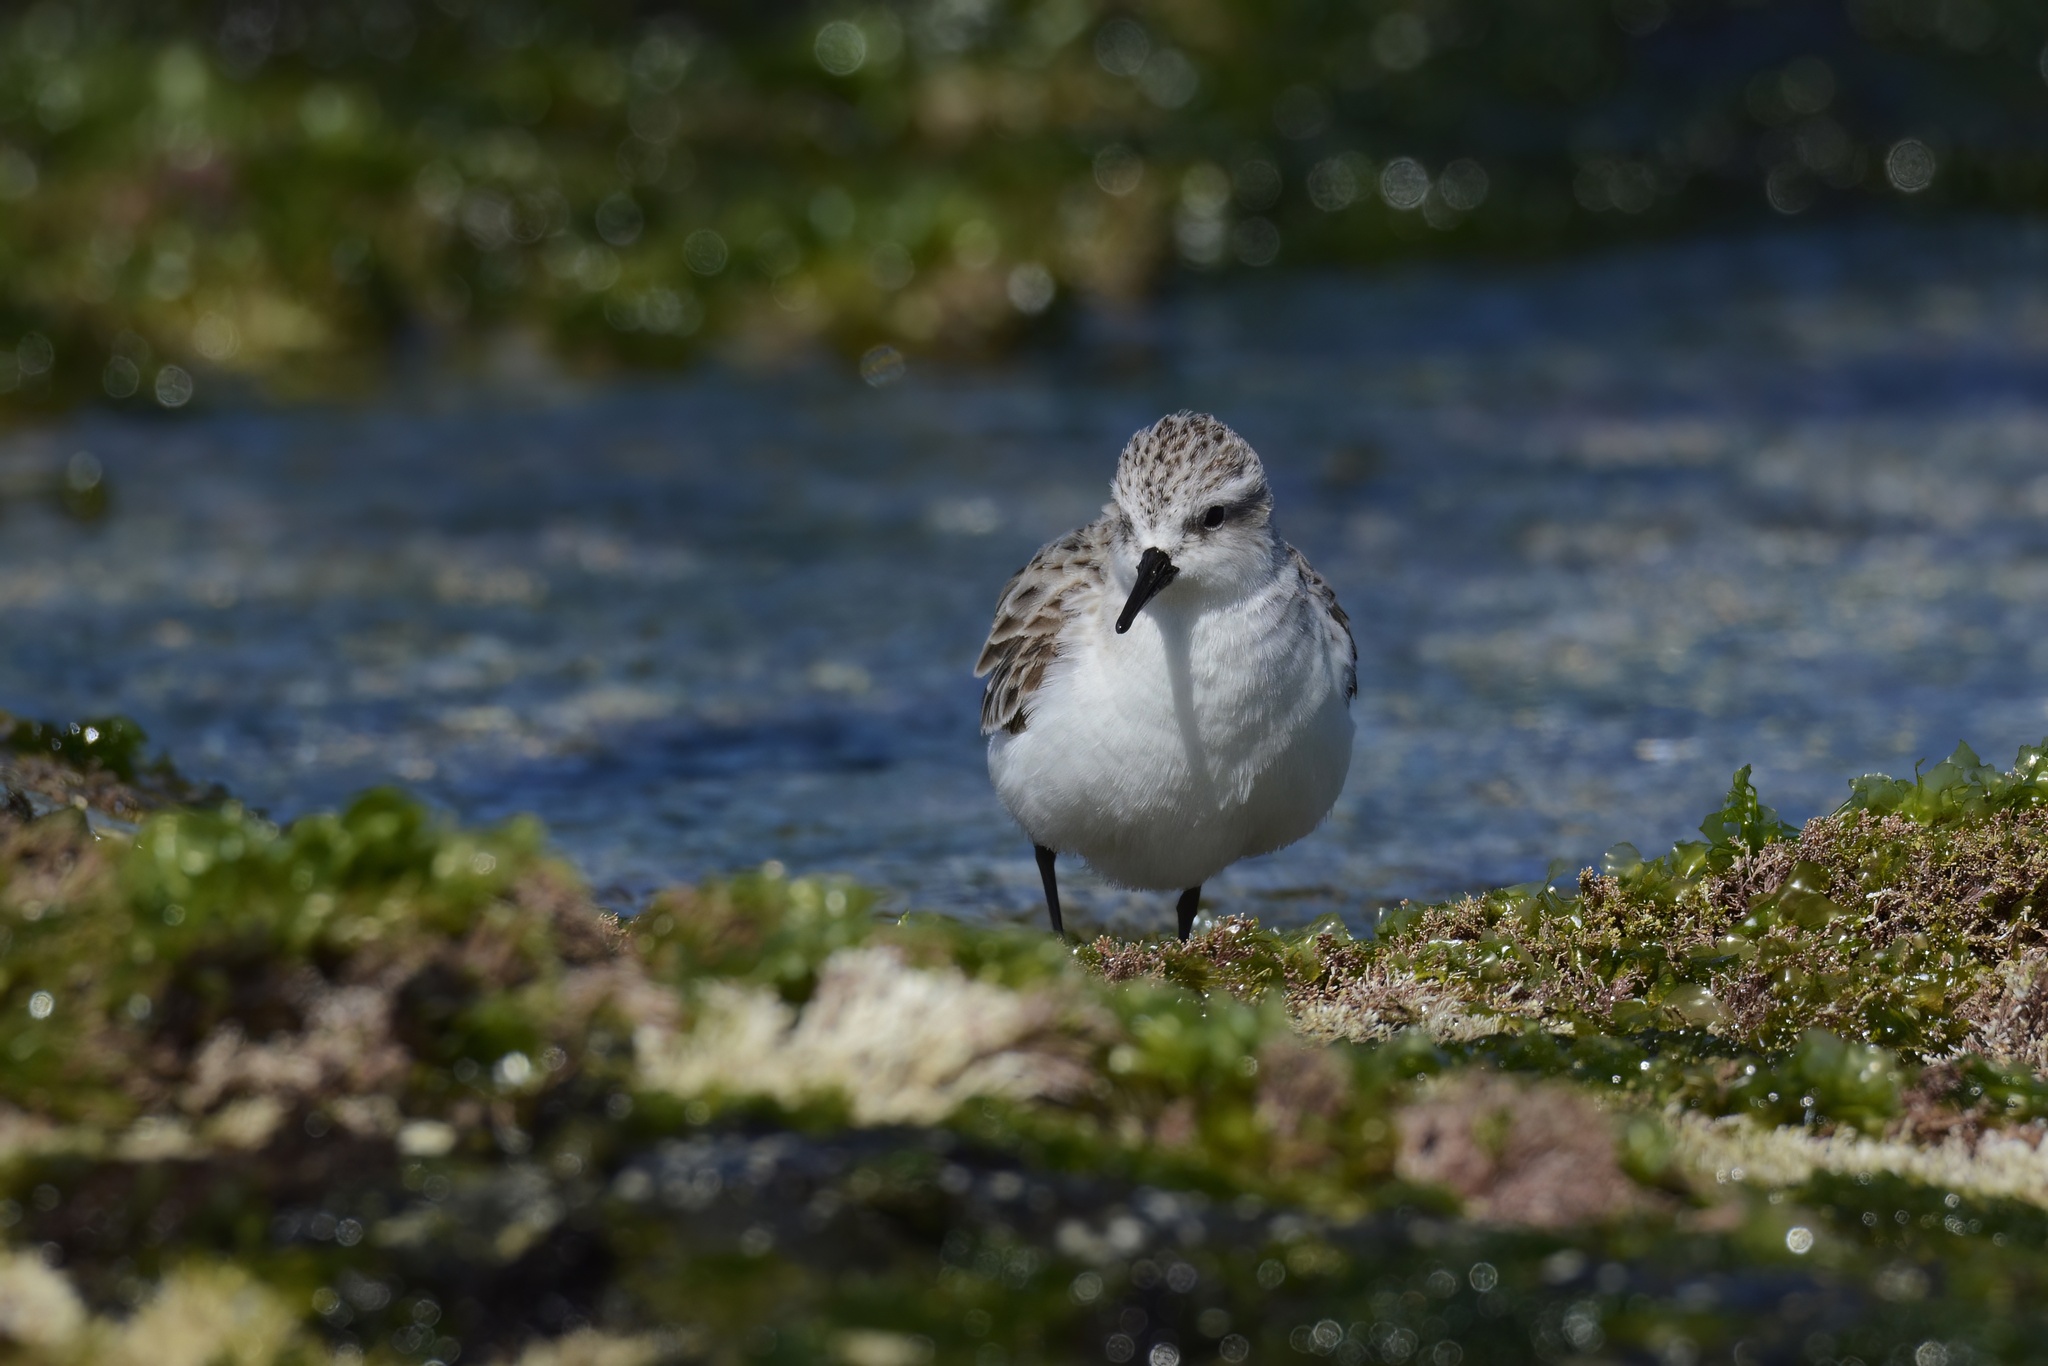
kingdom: Animalia
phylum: Chordata
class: Aves
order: Charadriiformes
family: Scolopacidae
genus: Calidris
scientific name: Calidris ruficollis
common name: Red-necked stint
